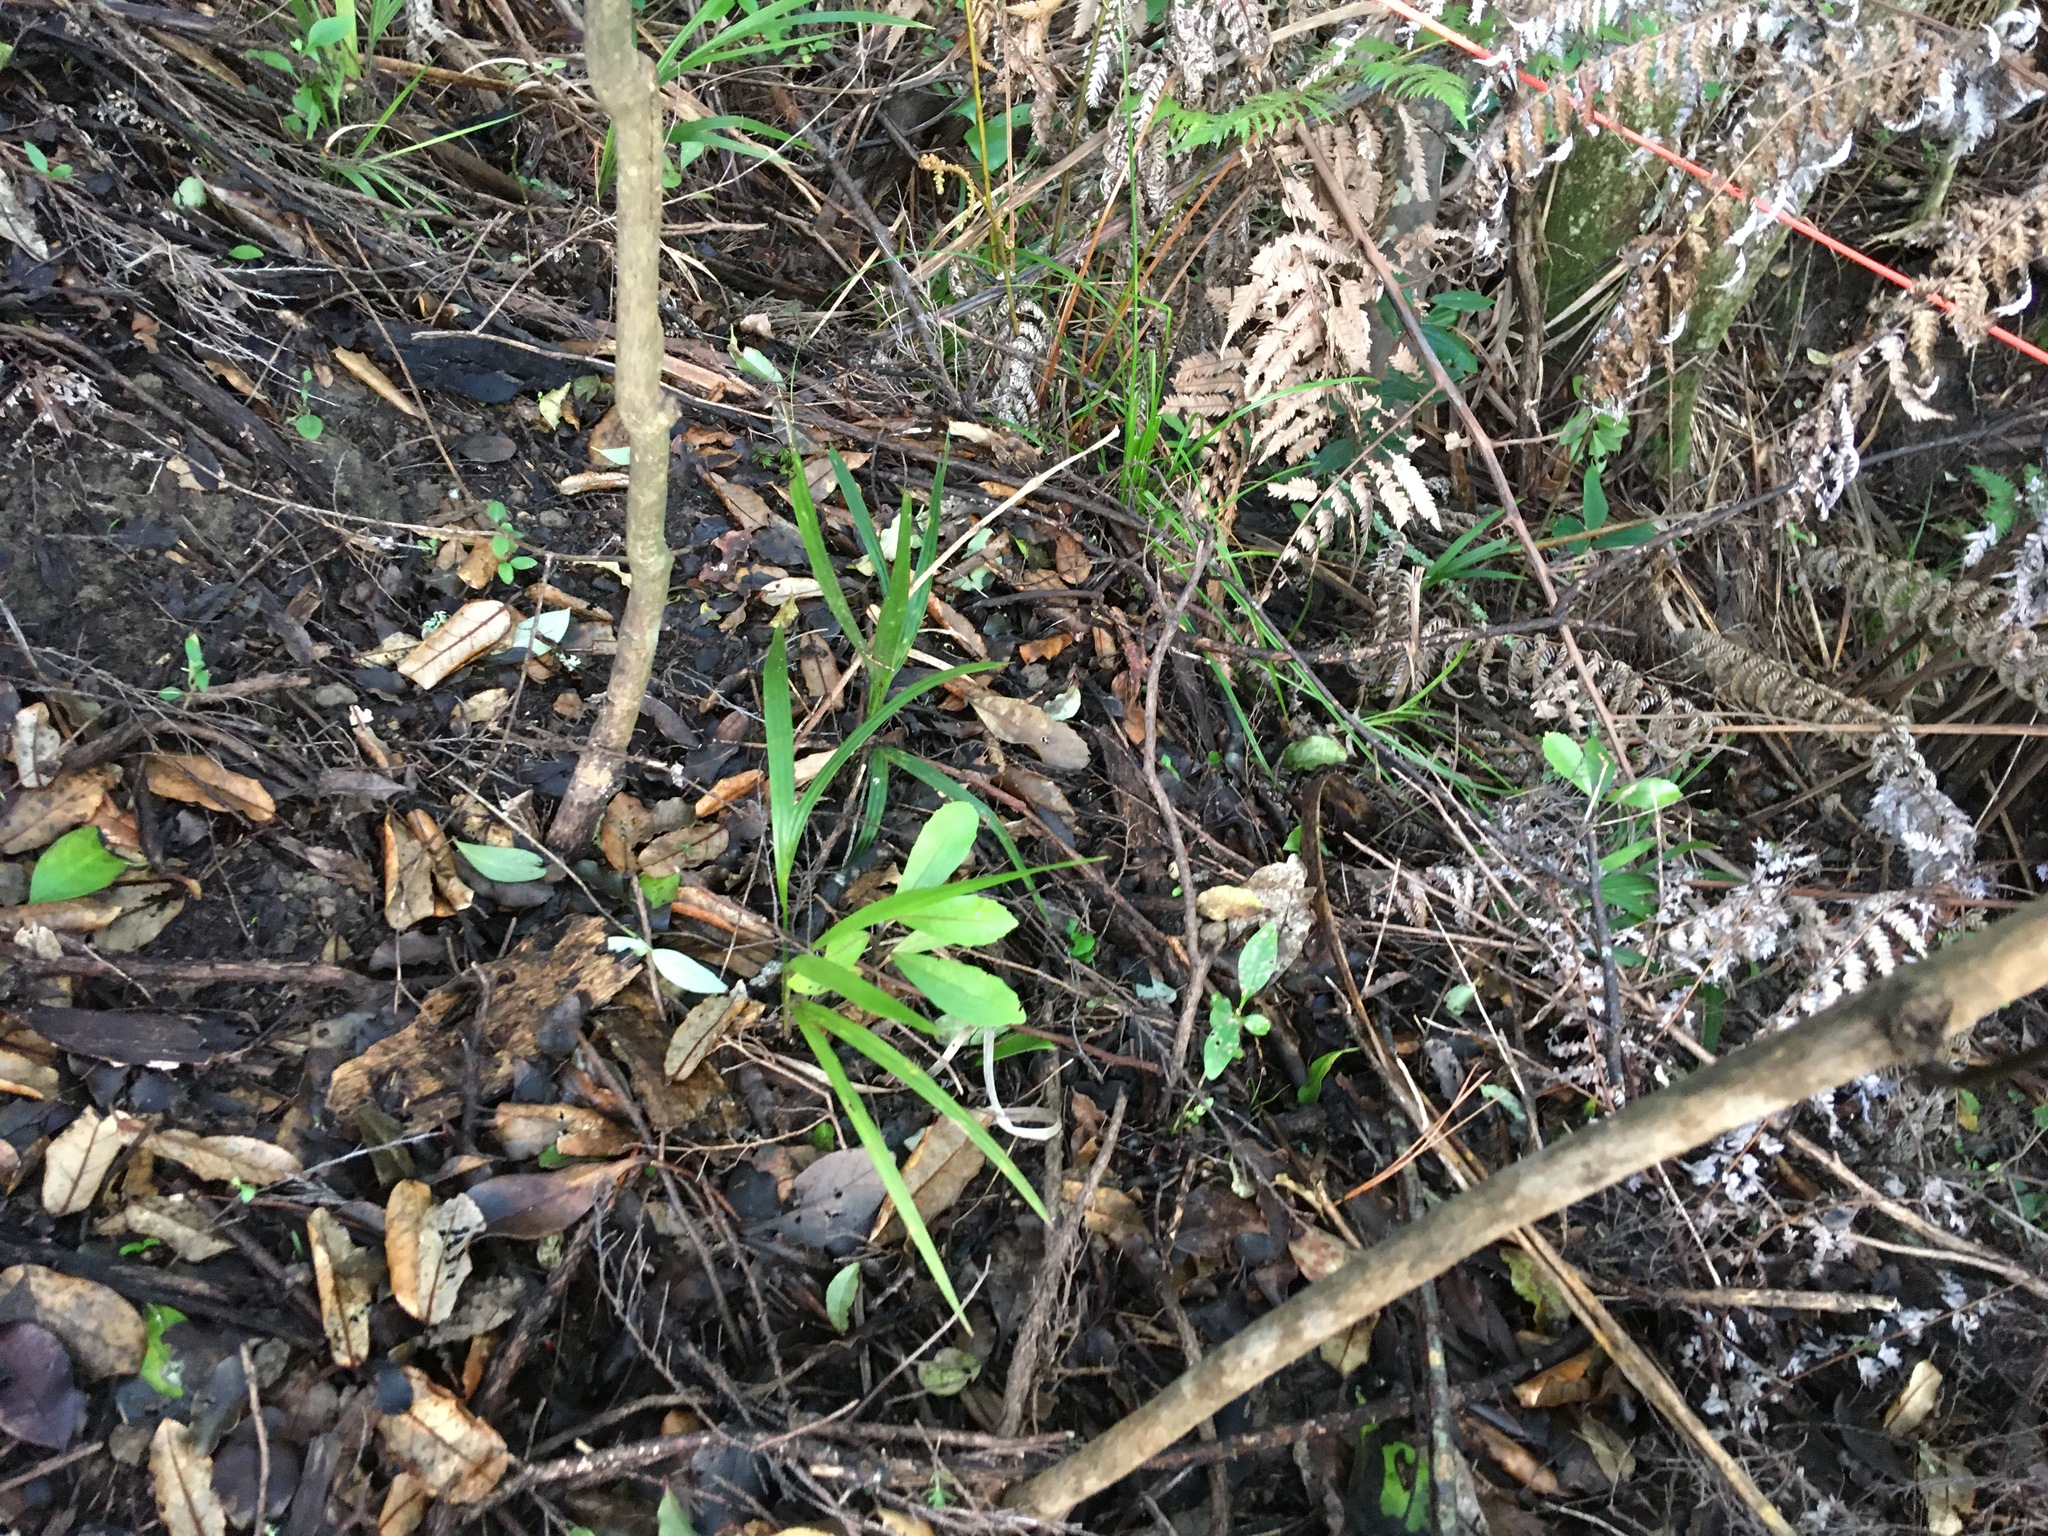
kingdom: Plantae
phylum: Tracheophyta
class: Liliopsida
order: Arecales
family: Arecaceae
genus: Rhopalostylis
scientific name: Rhopalostylis sapida
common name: Feather-duster palm
